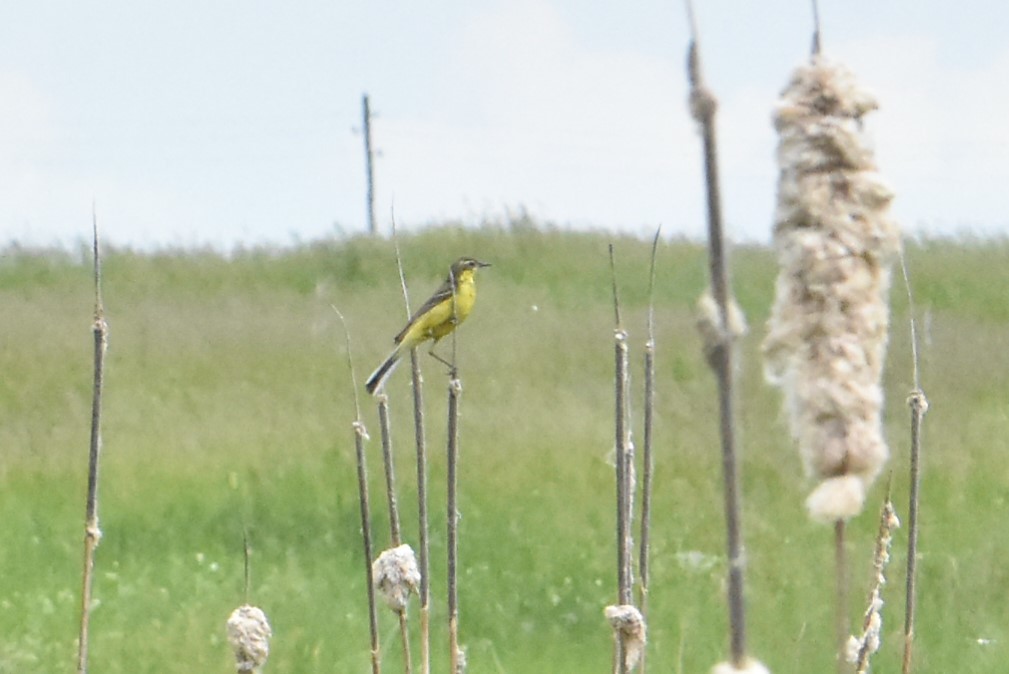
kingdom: Animalia
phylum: Chordata
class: Aves
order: Passeriformes
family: Motacillidae
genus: Motacilla
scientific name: Motacilla flava
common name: Western yellow wagtail
